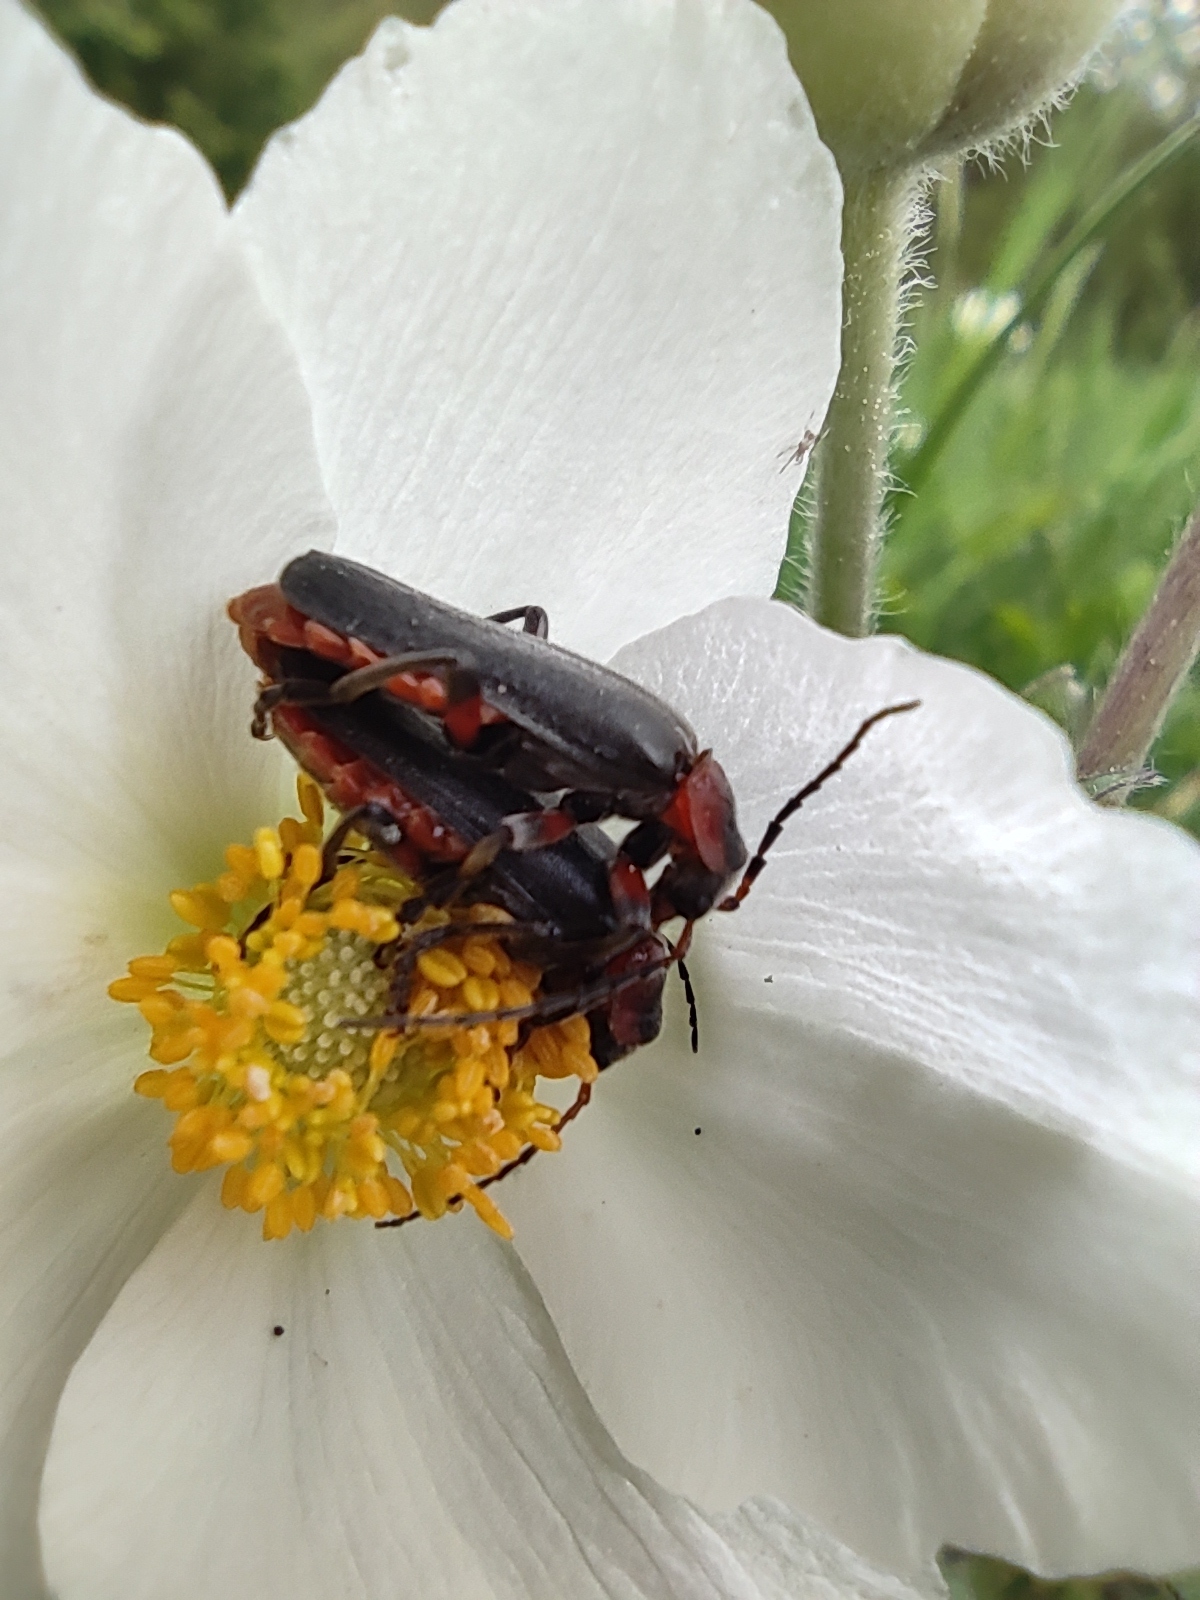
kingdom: Animalia
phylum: Arthropoda
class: Insecta
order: Coleoptera
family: Cantharidae
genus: Cantharis
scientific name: Cantharis rustica
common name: Soldier beetle
